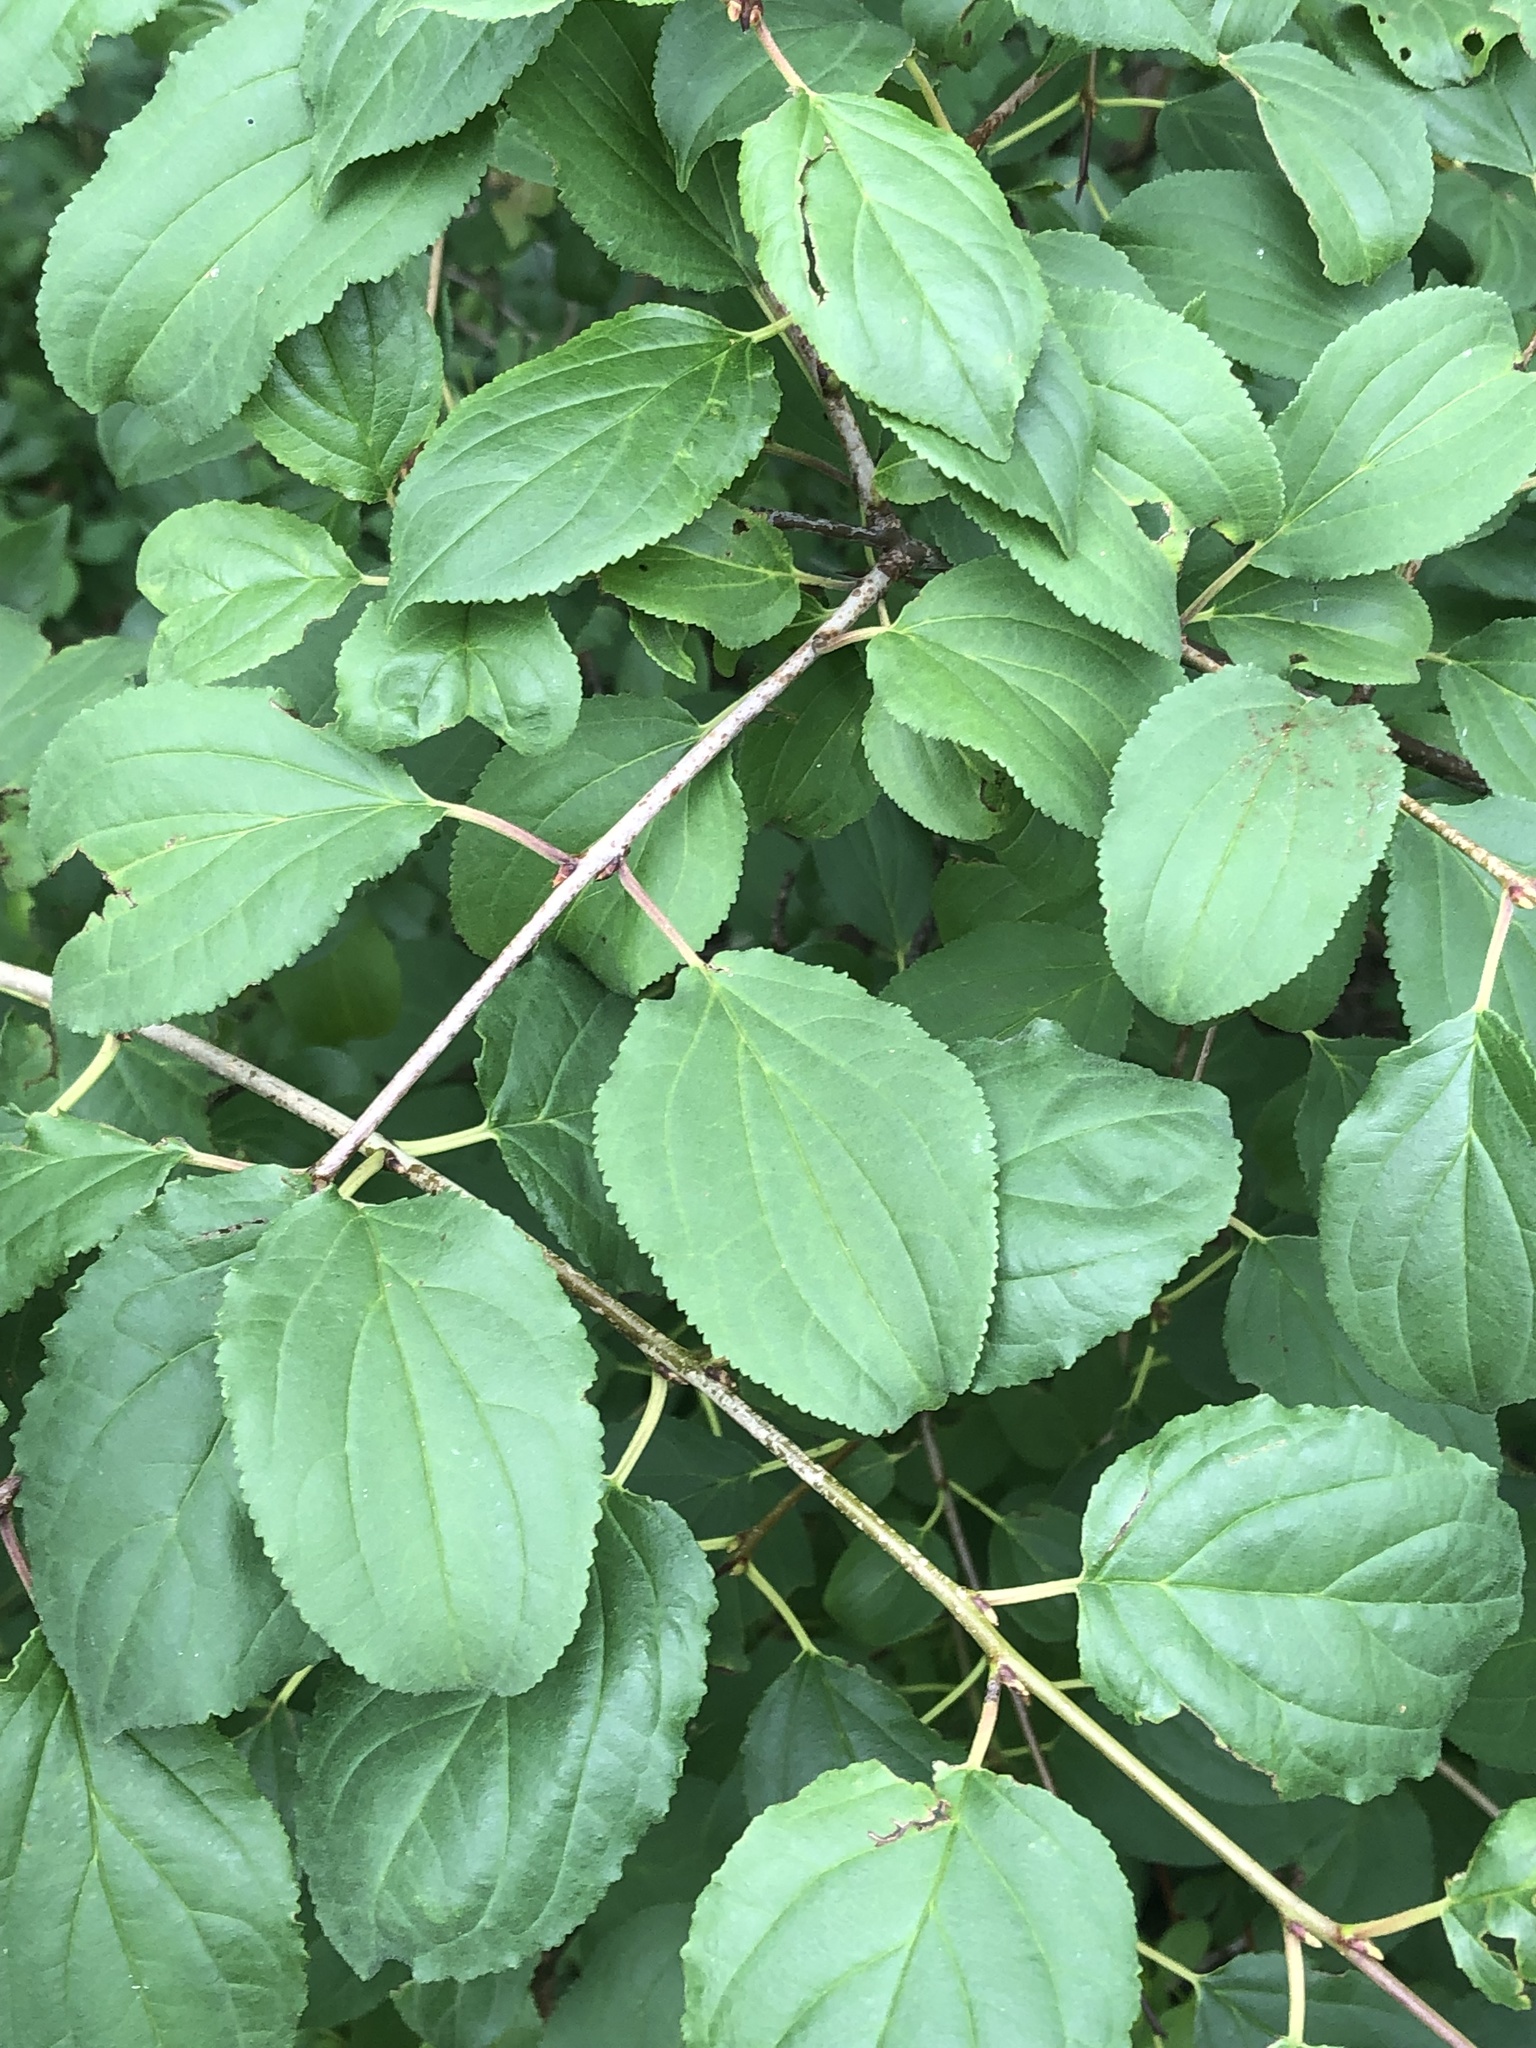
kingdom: Plantae
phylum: Tracheophyta
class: Magnoliopsida
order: Rosales
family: Rhamnaceae
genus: Rhamnus
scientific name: Rhamnus cathartica
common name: Common buckthorn
